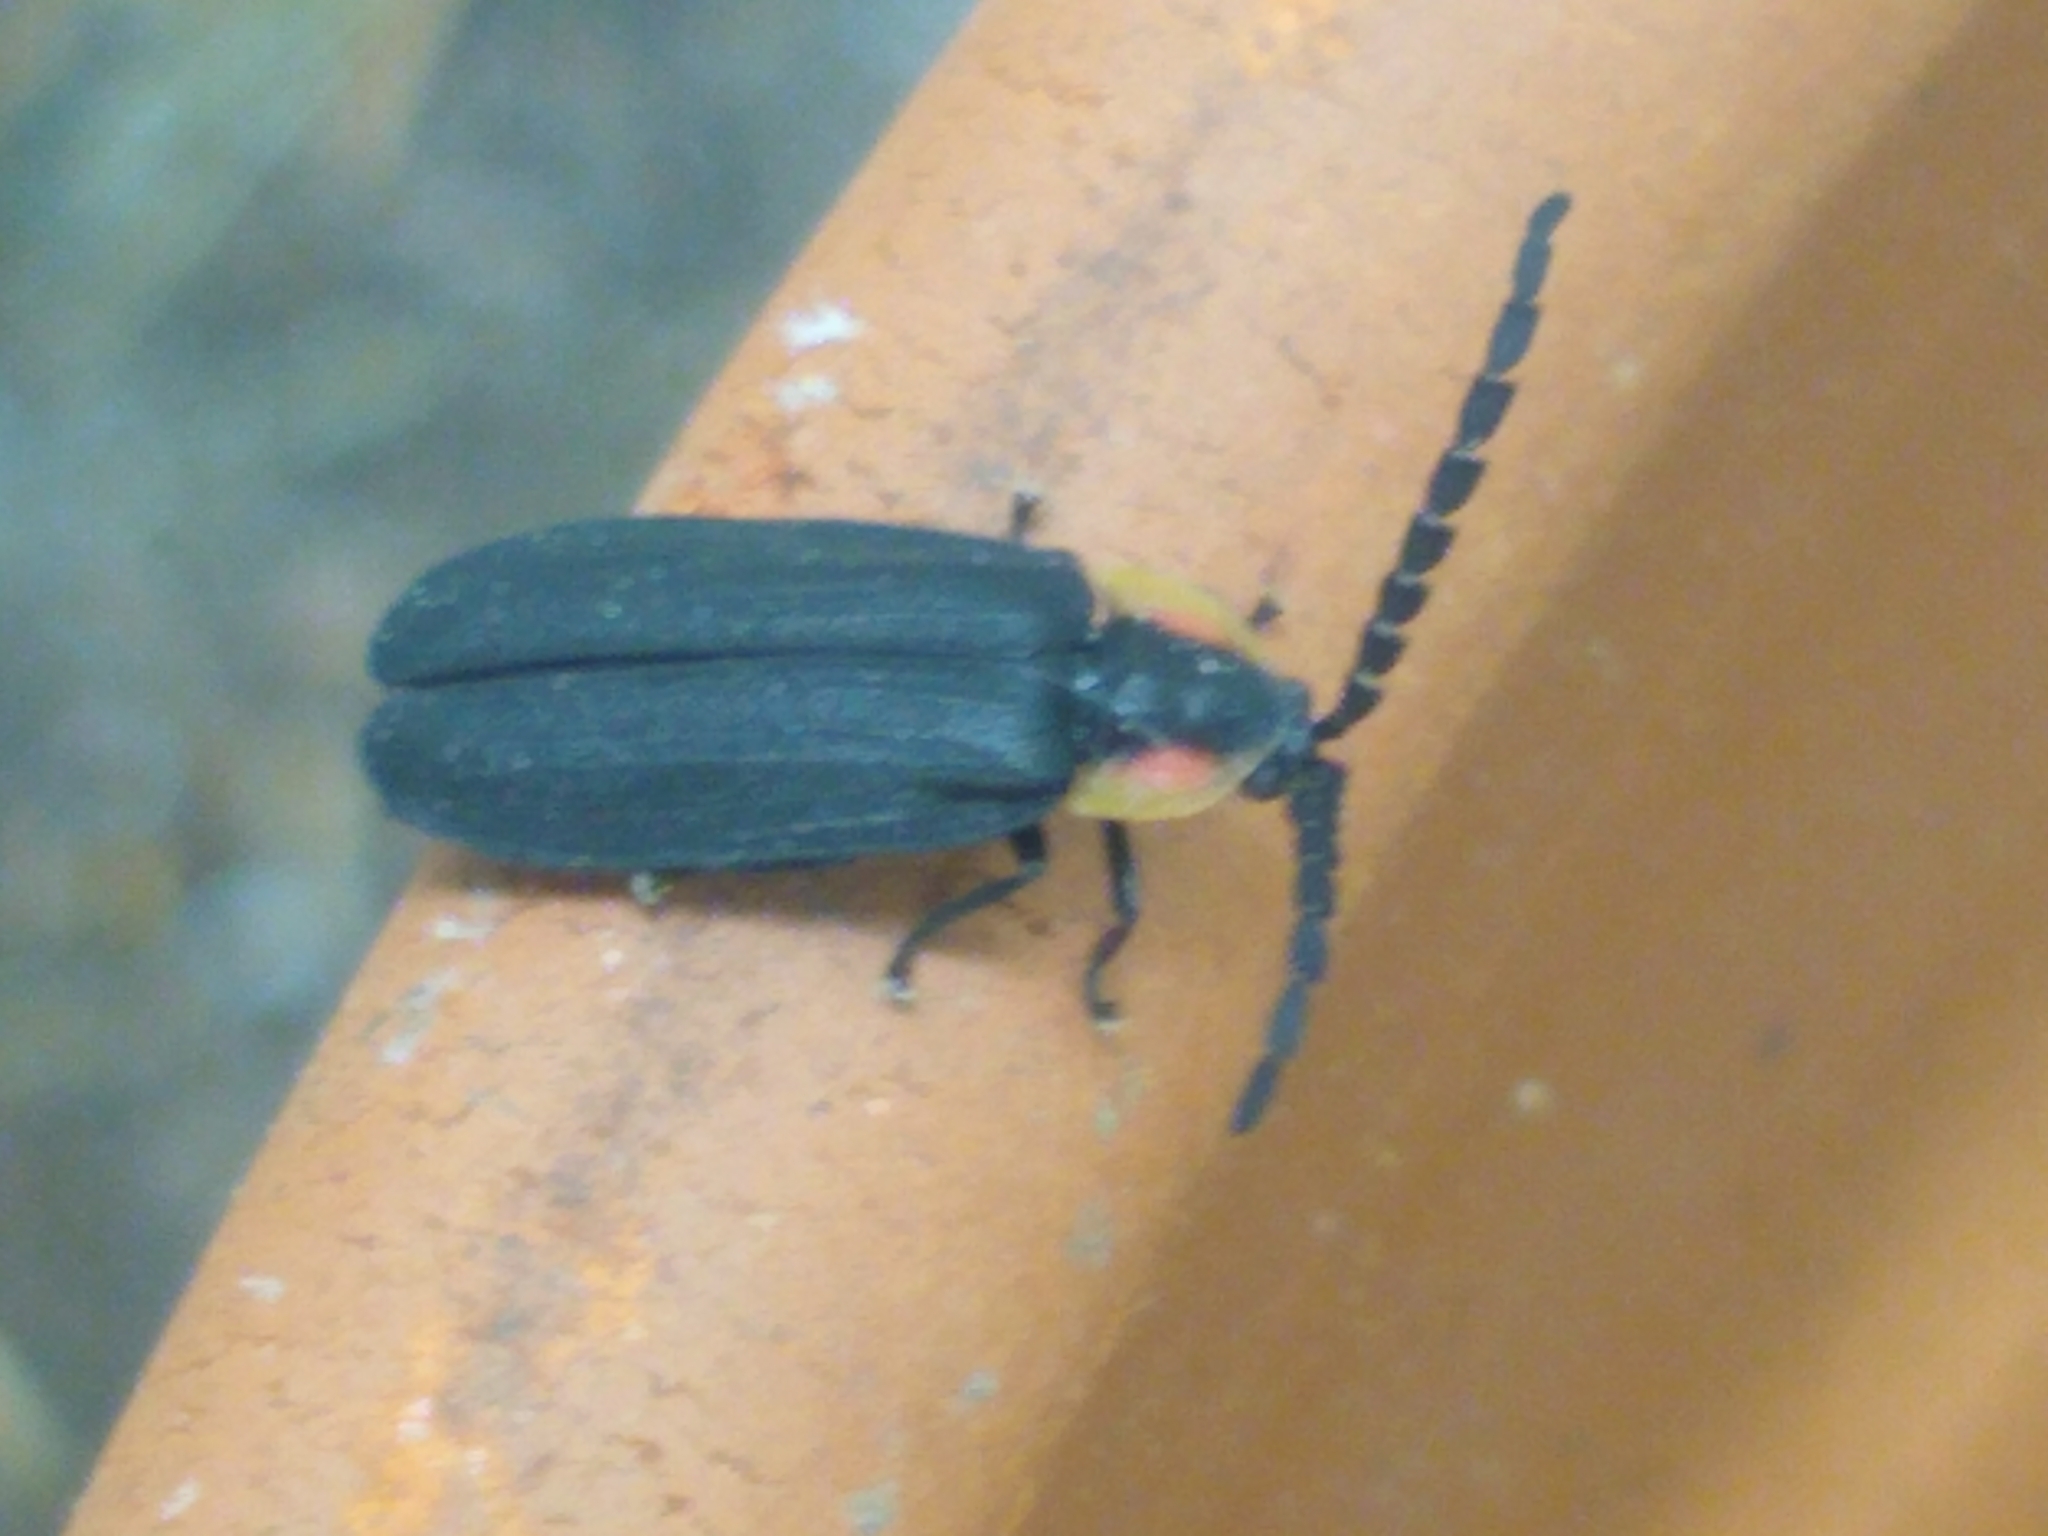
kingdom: Animalia
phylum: Arthropoda
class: Insecta
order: Coleoptera
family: Lampyridae
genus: Lucidota
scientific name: Lucidota atra
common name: Black firefly
